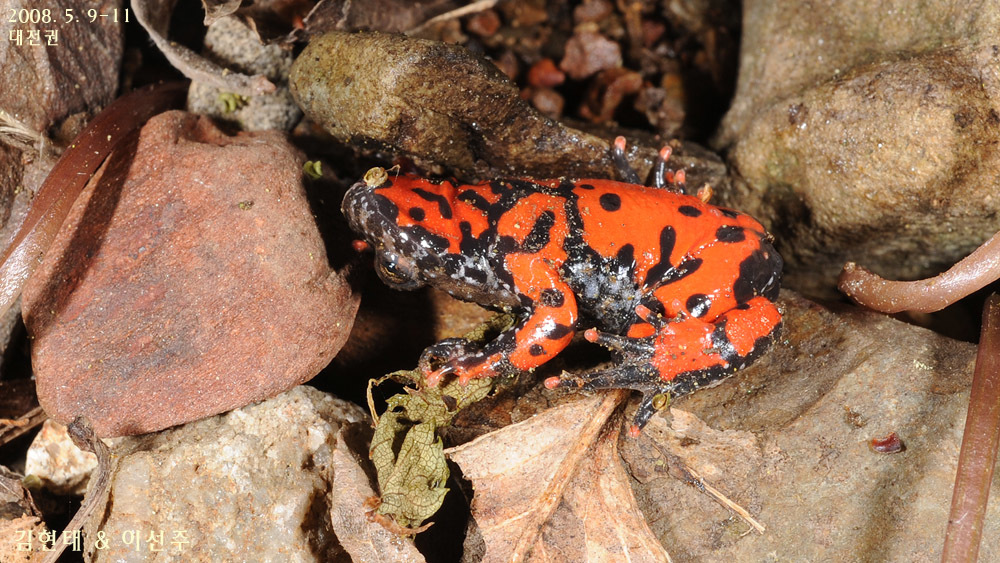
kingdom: Animalia
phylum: Chordata
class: Amphibia
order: Anura
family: Bombinatoridae
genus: Bombina
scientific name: Bombina orientalis
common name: Oriental firebelly toad
